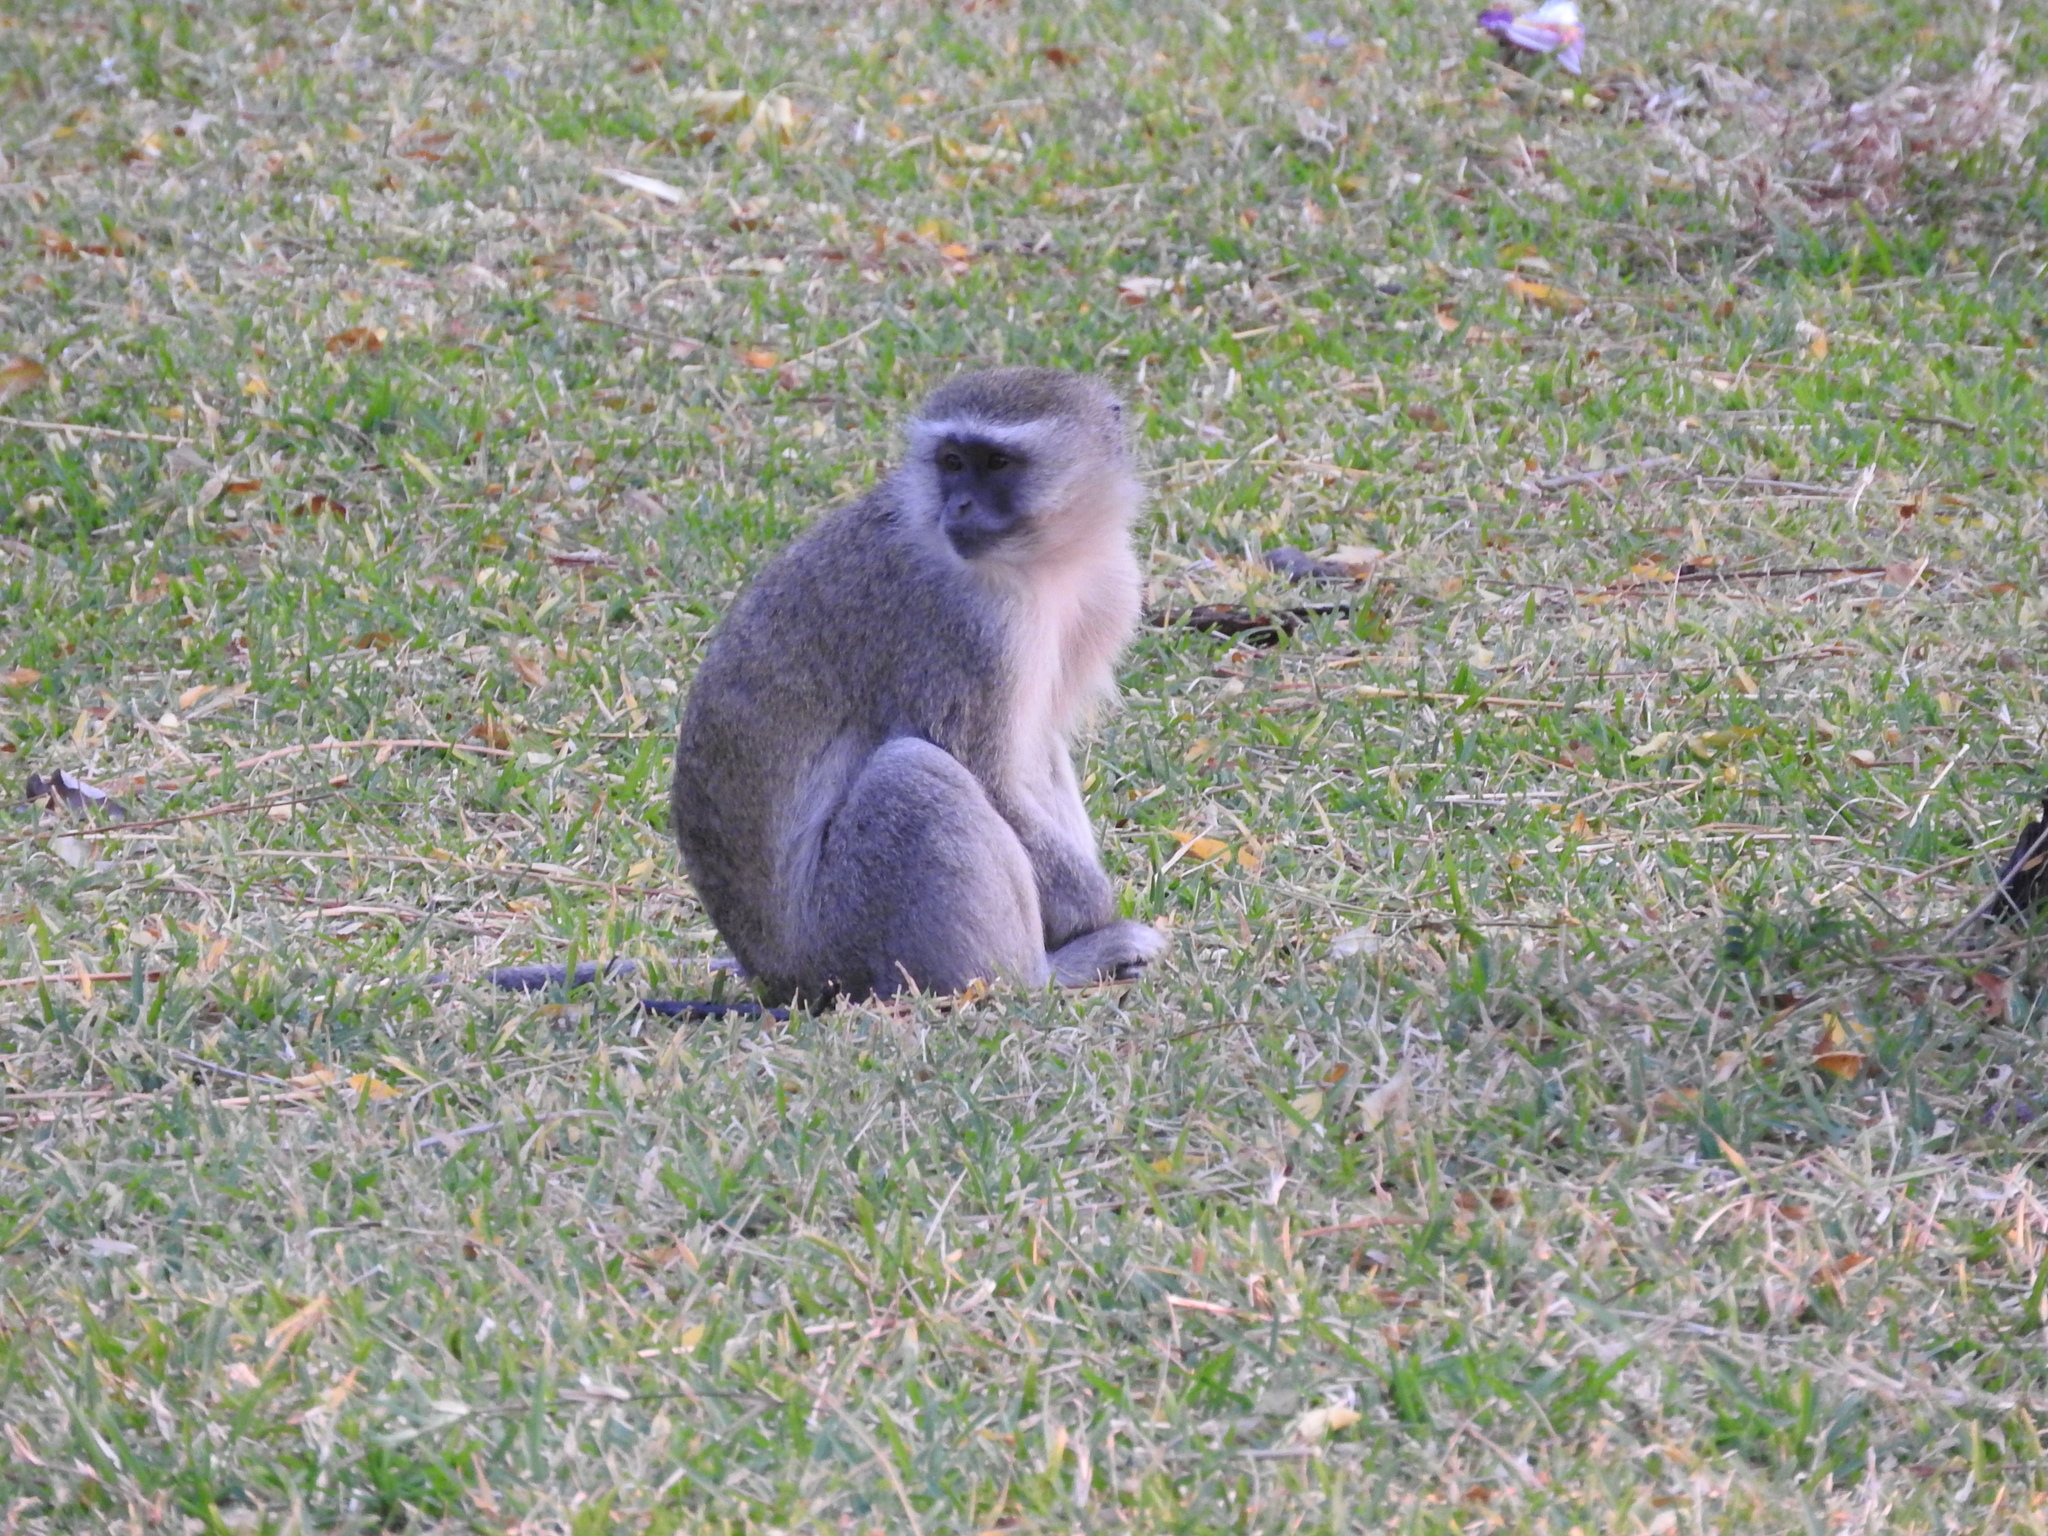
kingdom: Animalia
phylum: Chordata
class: Mammalia
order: Primates
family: Cercopithecidae
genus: Chlorocebus
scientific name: Chlorocebus cynosuros
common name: Malbrouck
